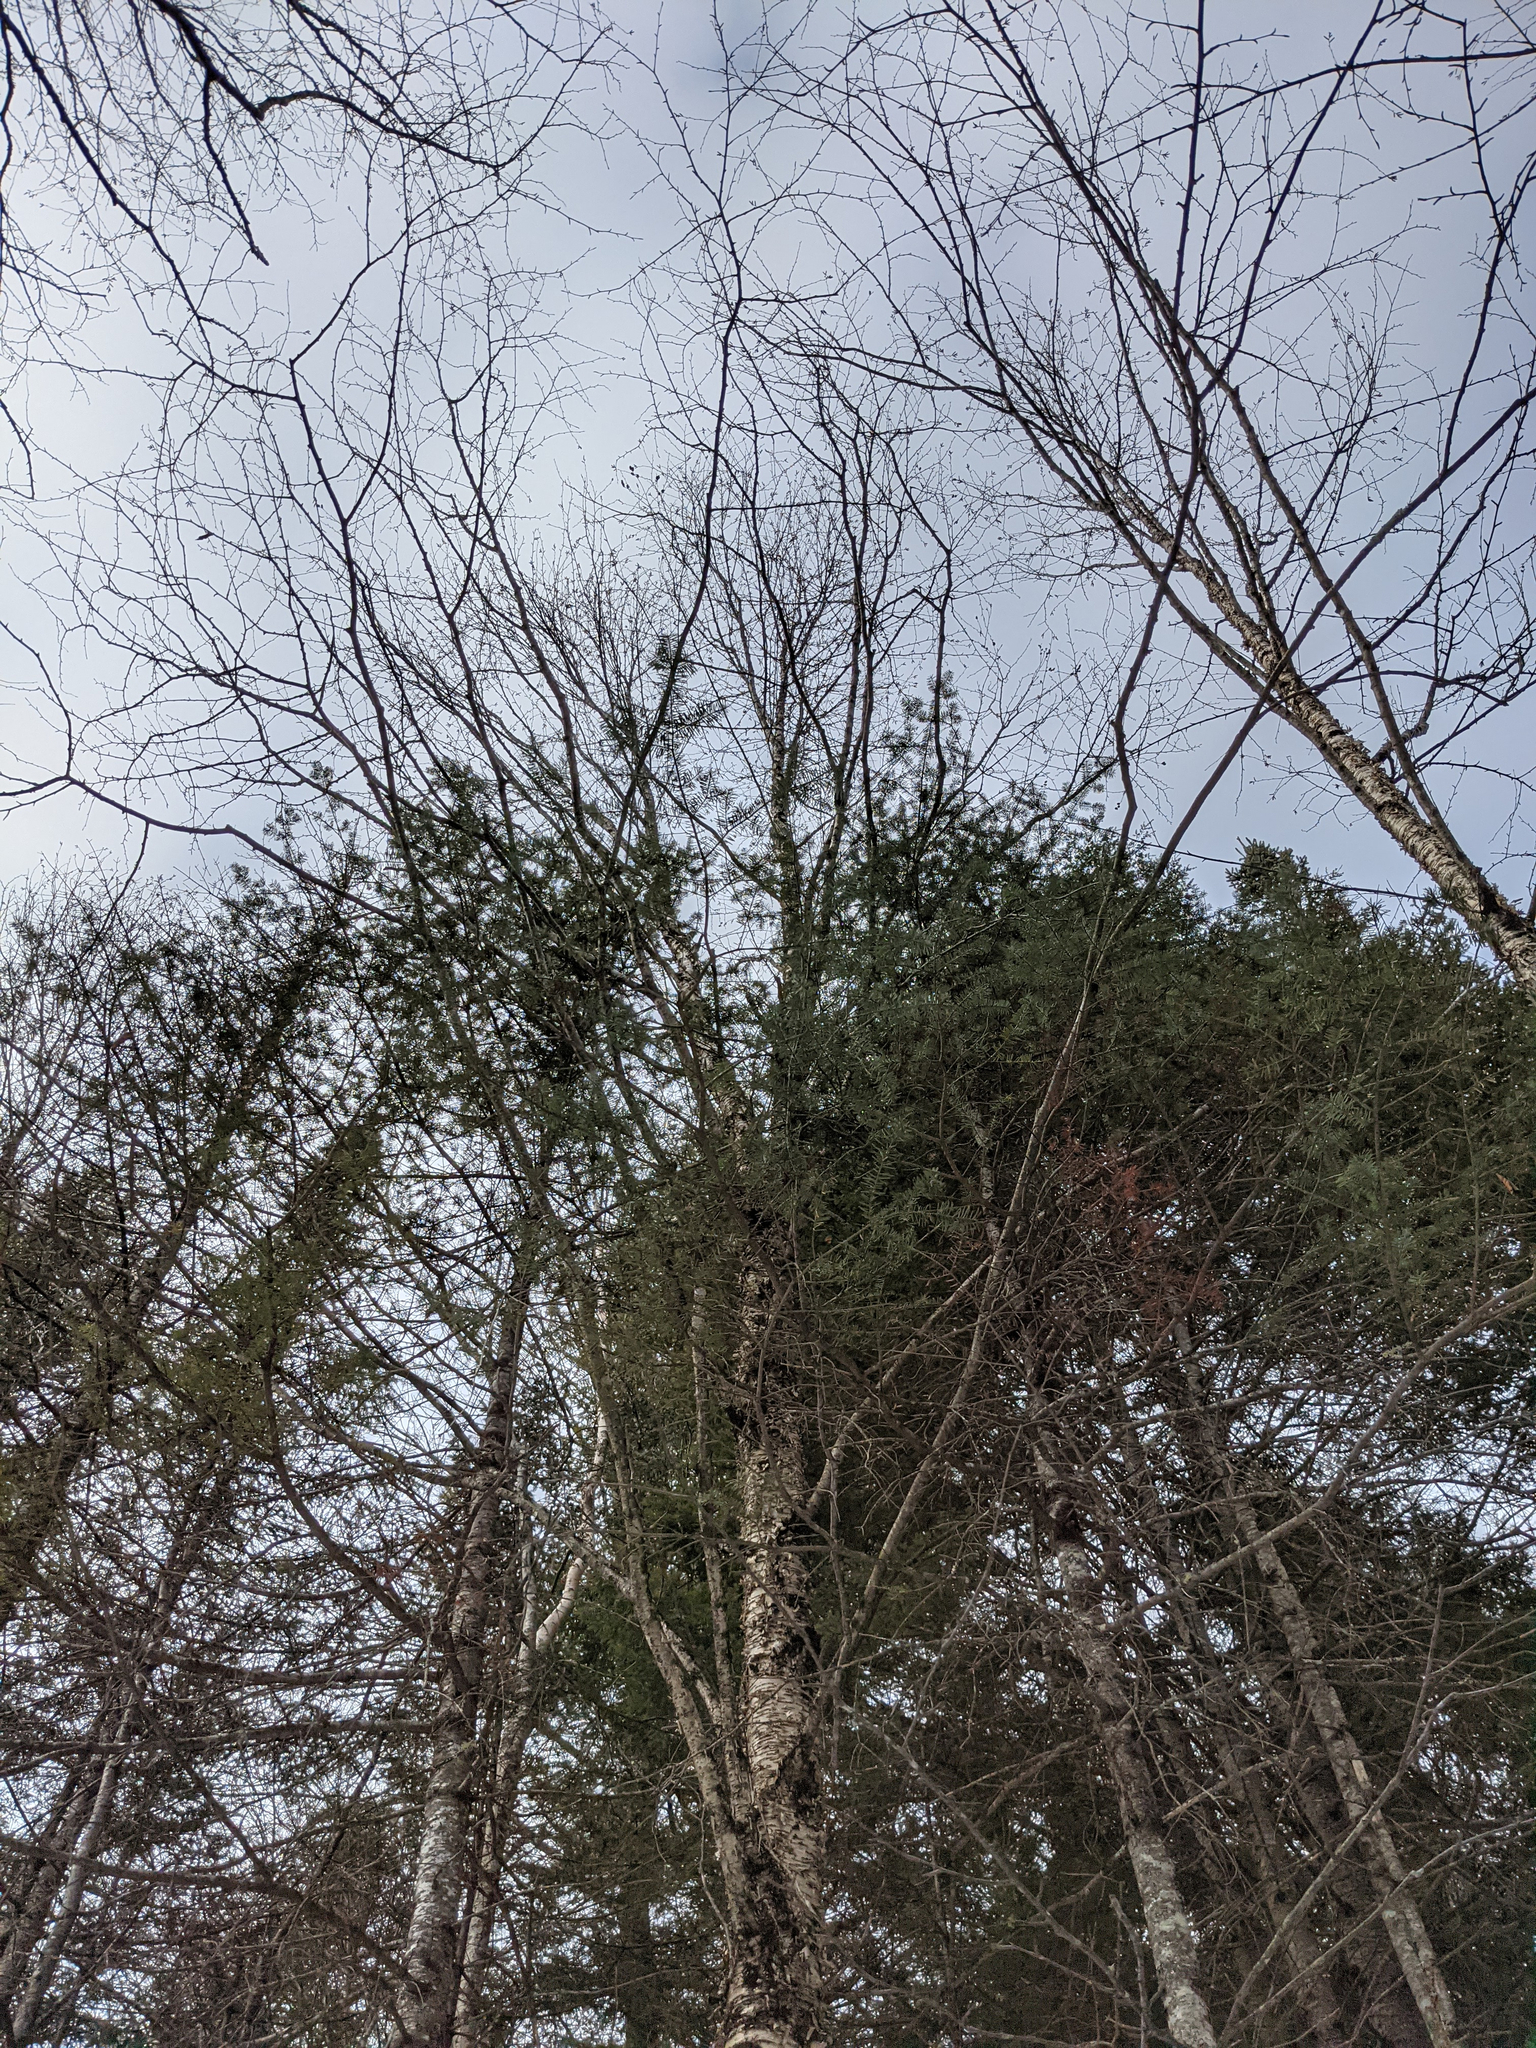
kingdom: Plantae
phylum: Tracheophyta
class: Magnoliopsida
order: Fagales
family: Betulaceae
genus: Betula
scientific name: Betula alleghaniensis
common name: Yellow birch
